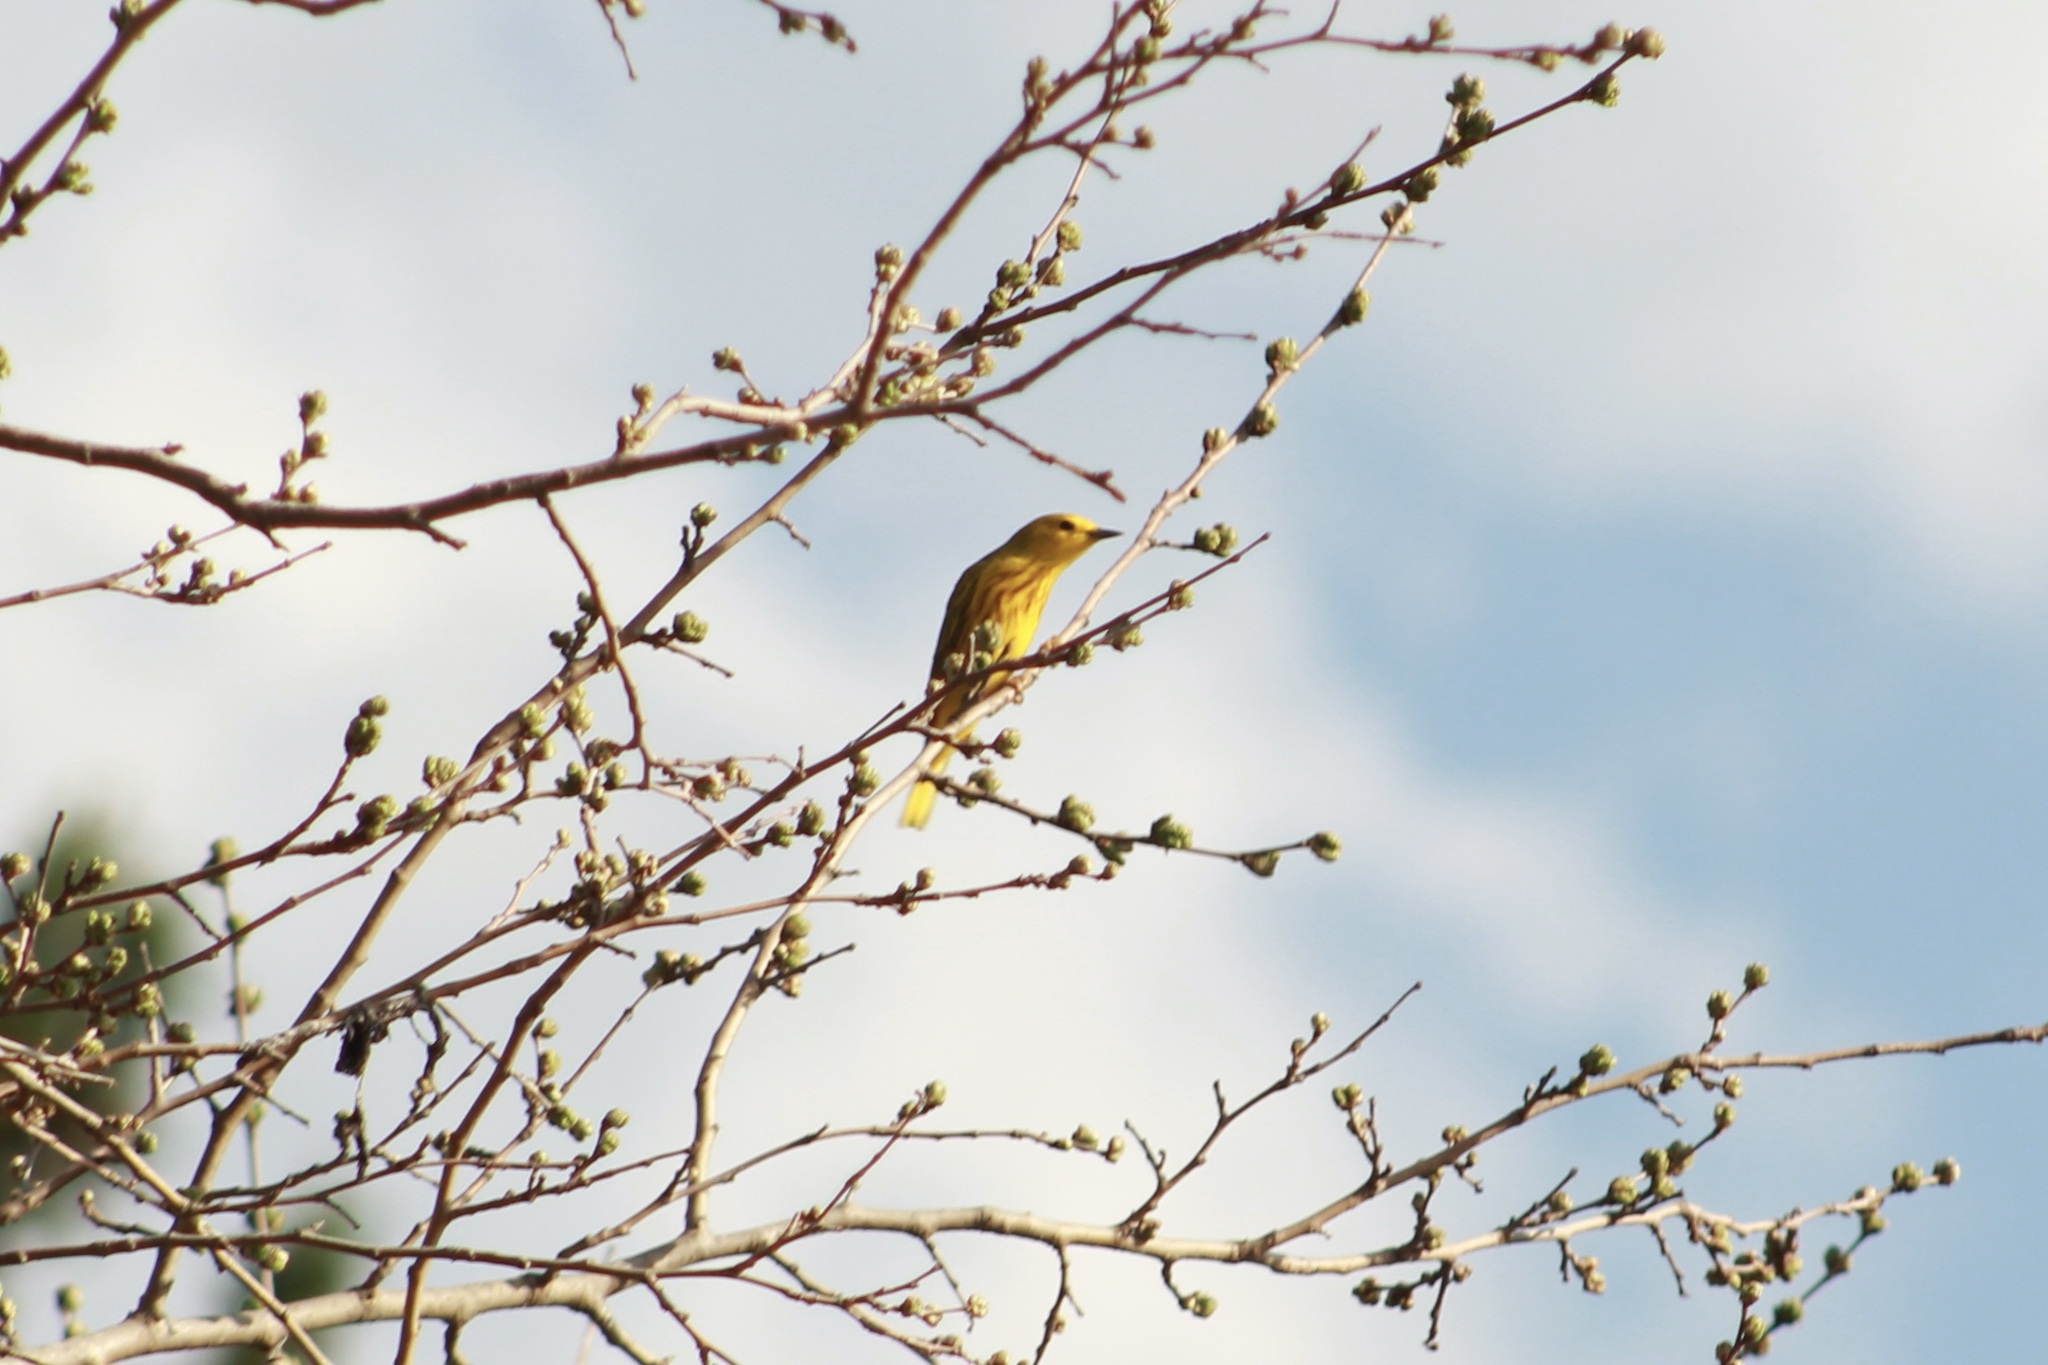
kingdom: Animalia
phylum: Chordata
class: Aves
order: Passeriformes
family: Parulidae
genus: Setophaga
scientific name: Setophaga petechia
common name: Yellow warbler
